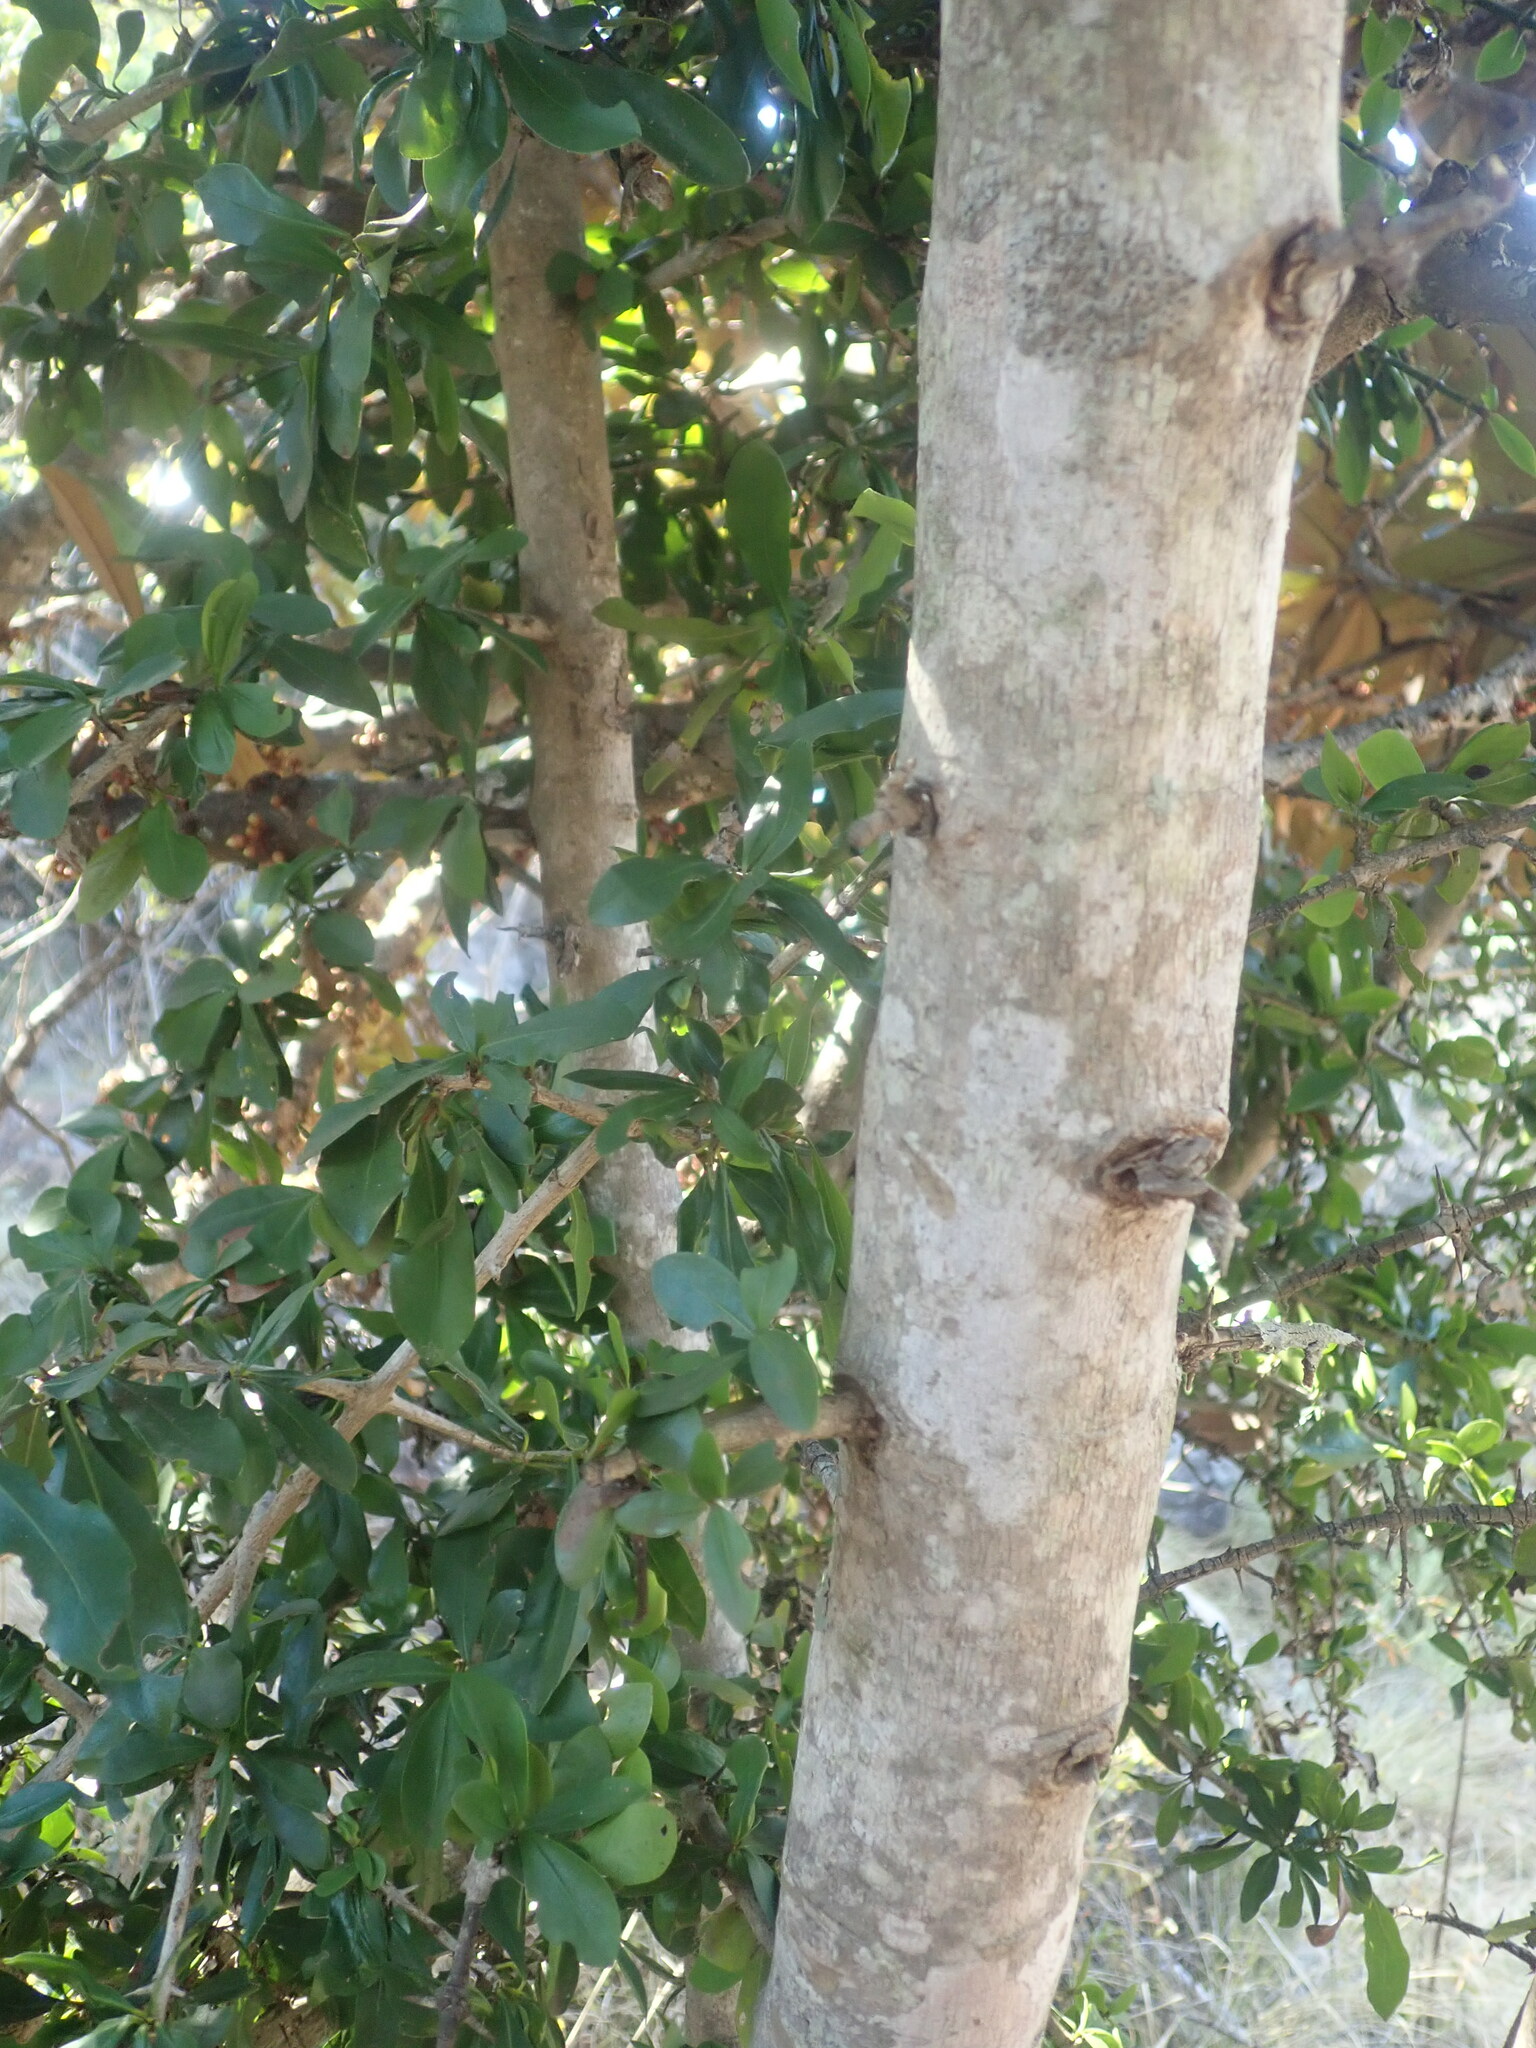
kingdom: Plantae
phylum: Tracheophyta
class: Magnoliopsida
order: Gentianales
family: Rubiaceae
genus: Hyperacanthus
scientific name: Hyperacanthus amoenus
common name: Spiny gardenia
